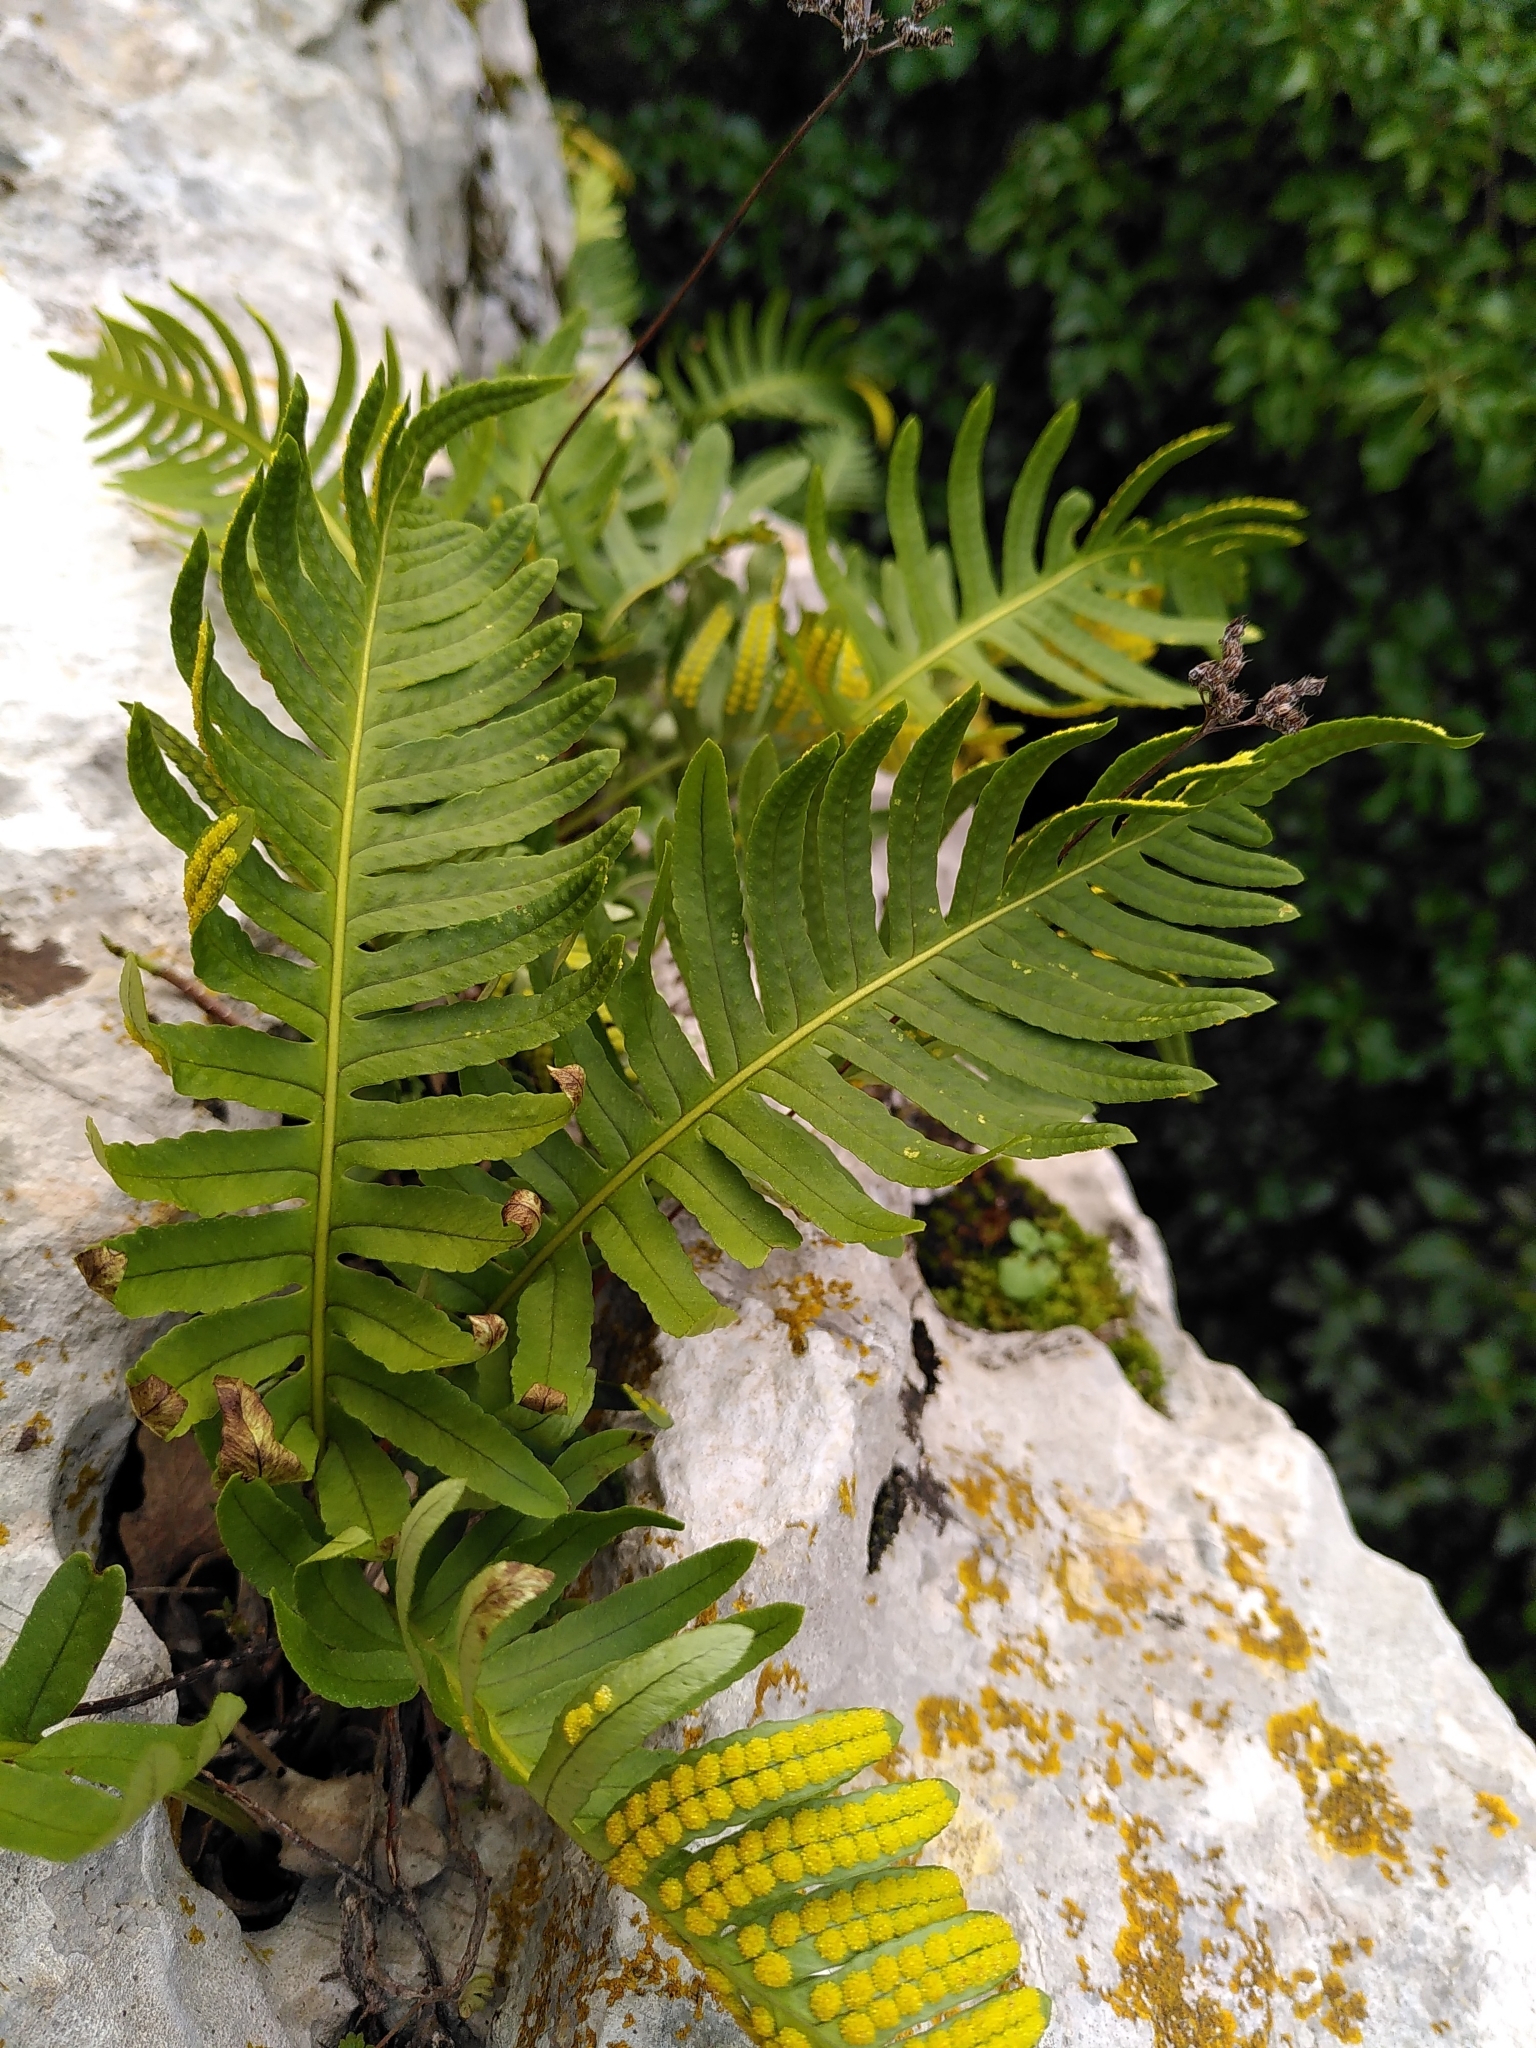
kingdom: Plantae
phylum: Tracheophyta
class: Polypodiopsida
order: Polypodiales
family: Polypodiaceae
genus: Polypodium
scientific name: Polypodium cambricum
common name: Southern polypody
